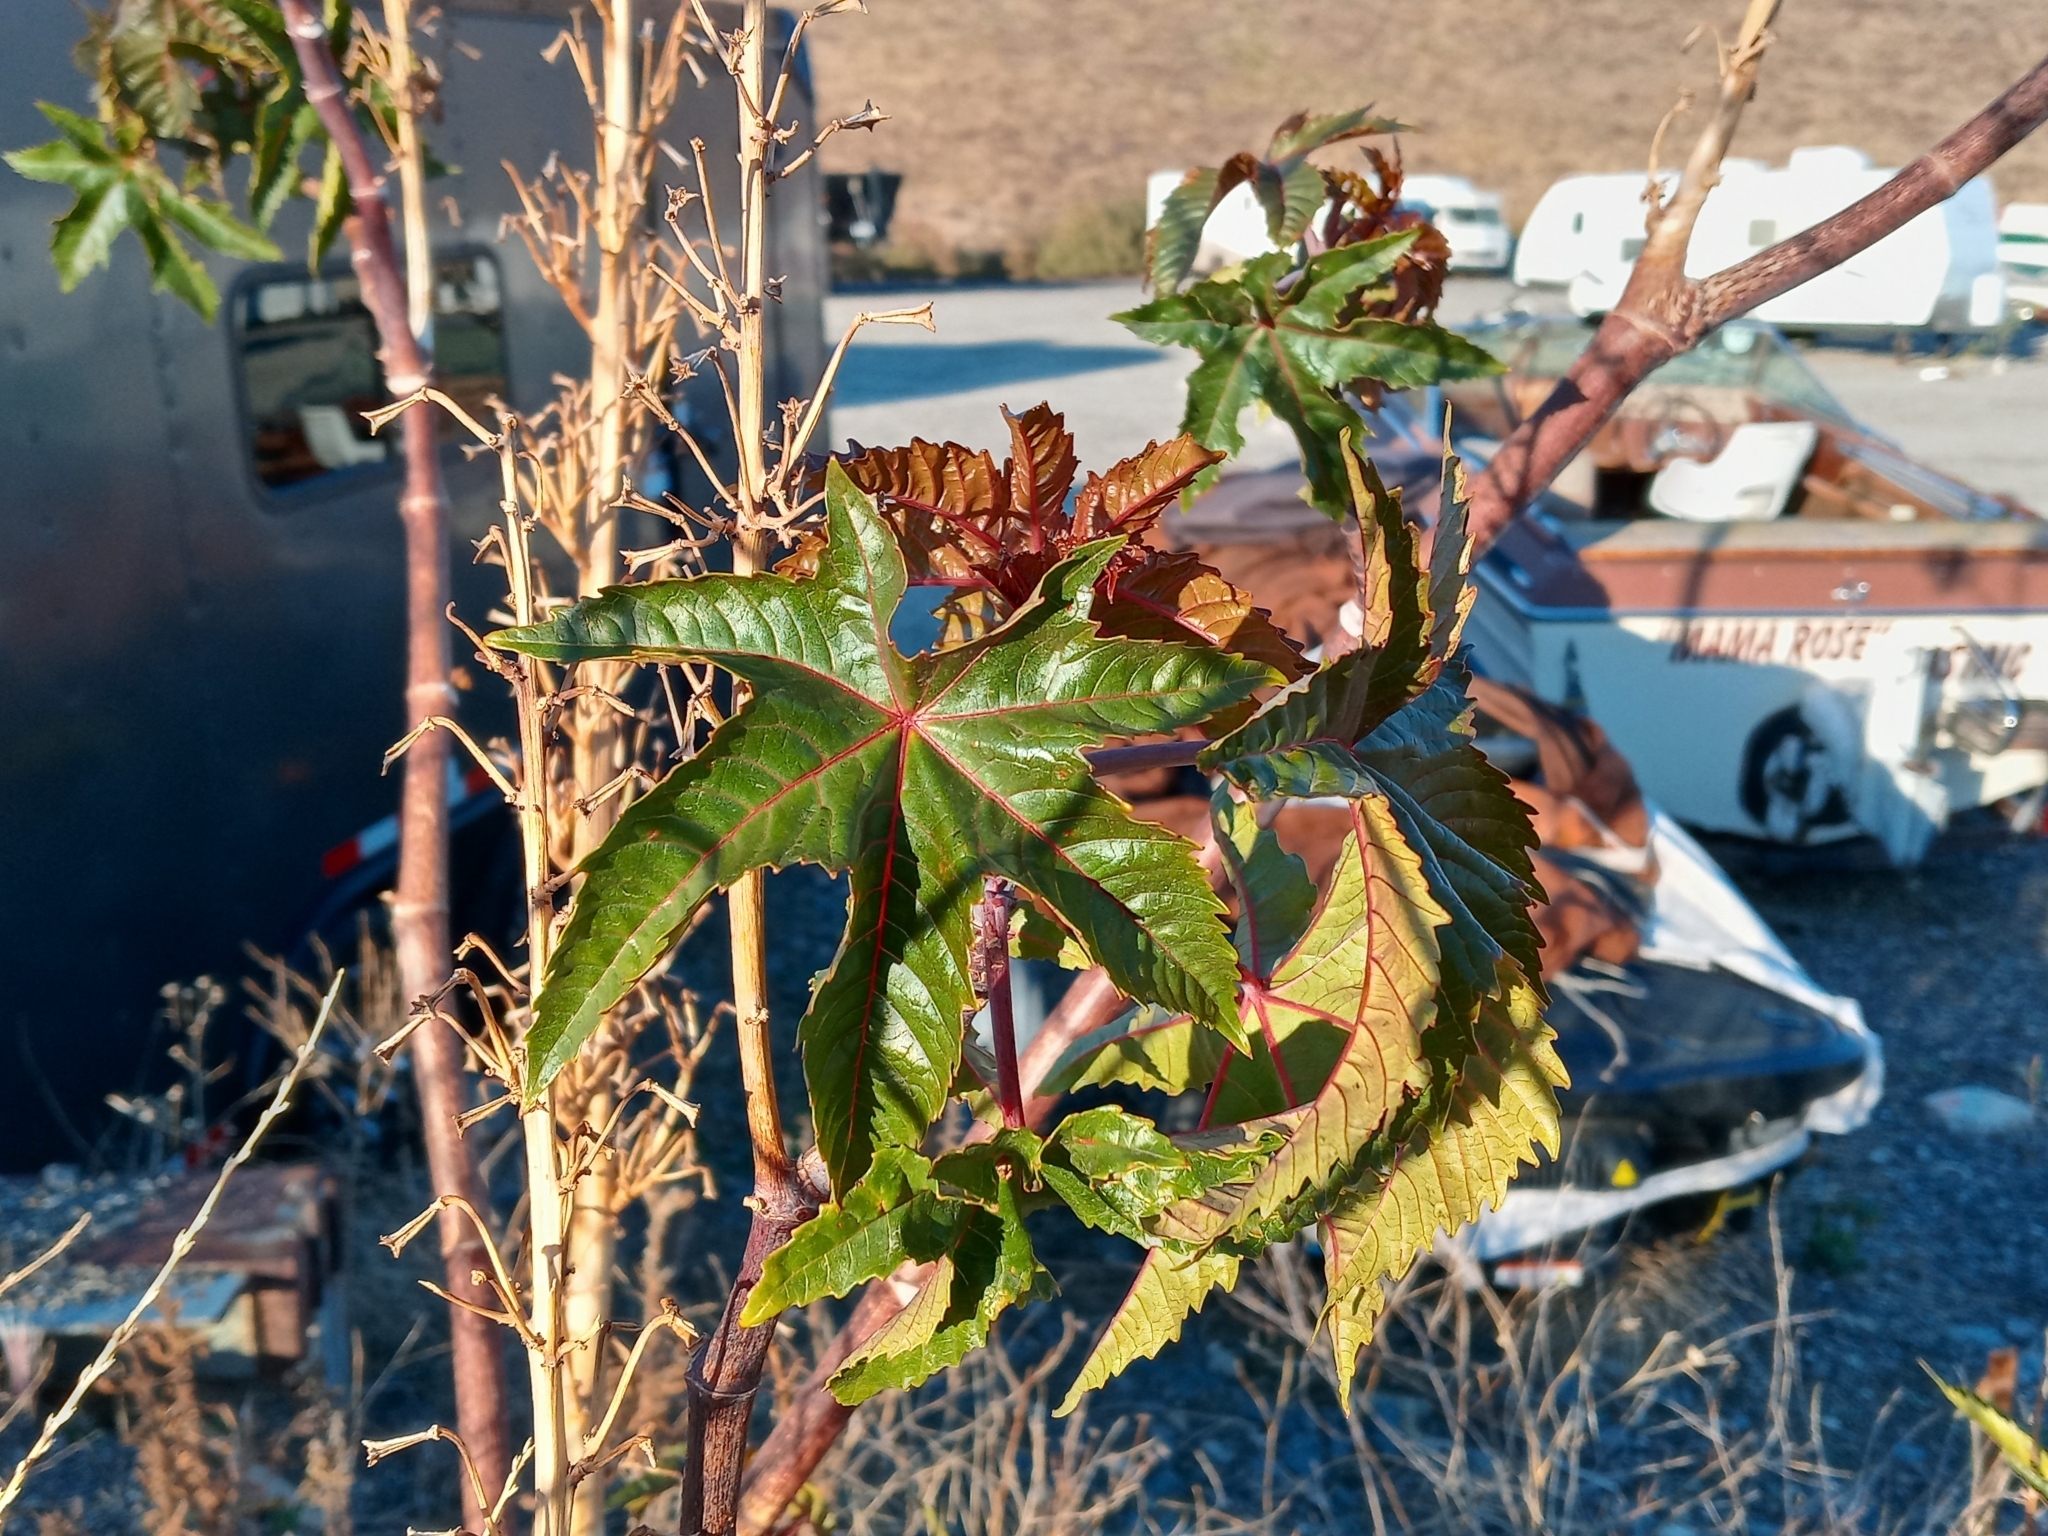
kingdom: Plantae
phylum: Tracheophyta
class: Magnoliopsida
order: Malpighiales
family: Euphorbiaceae
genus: Ricinus
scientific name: Ricinus communis
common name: Castor-oil-plant
